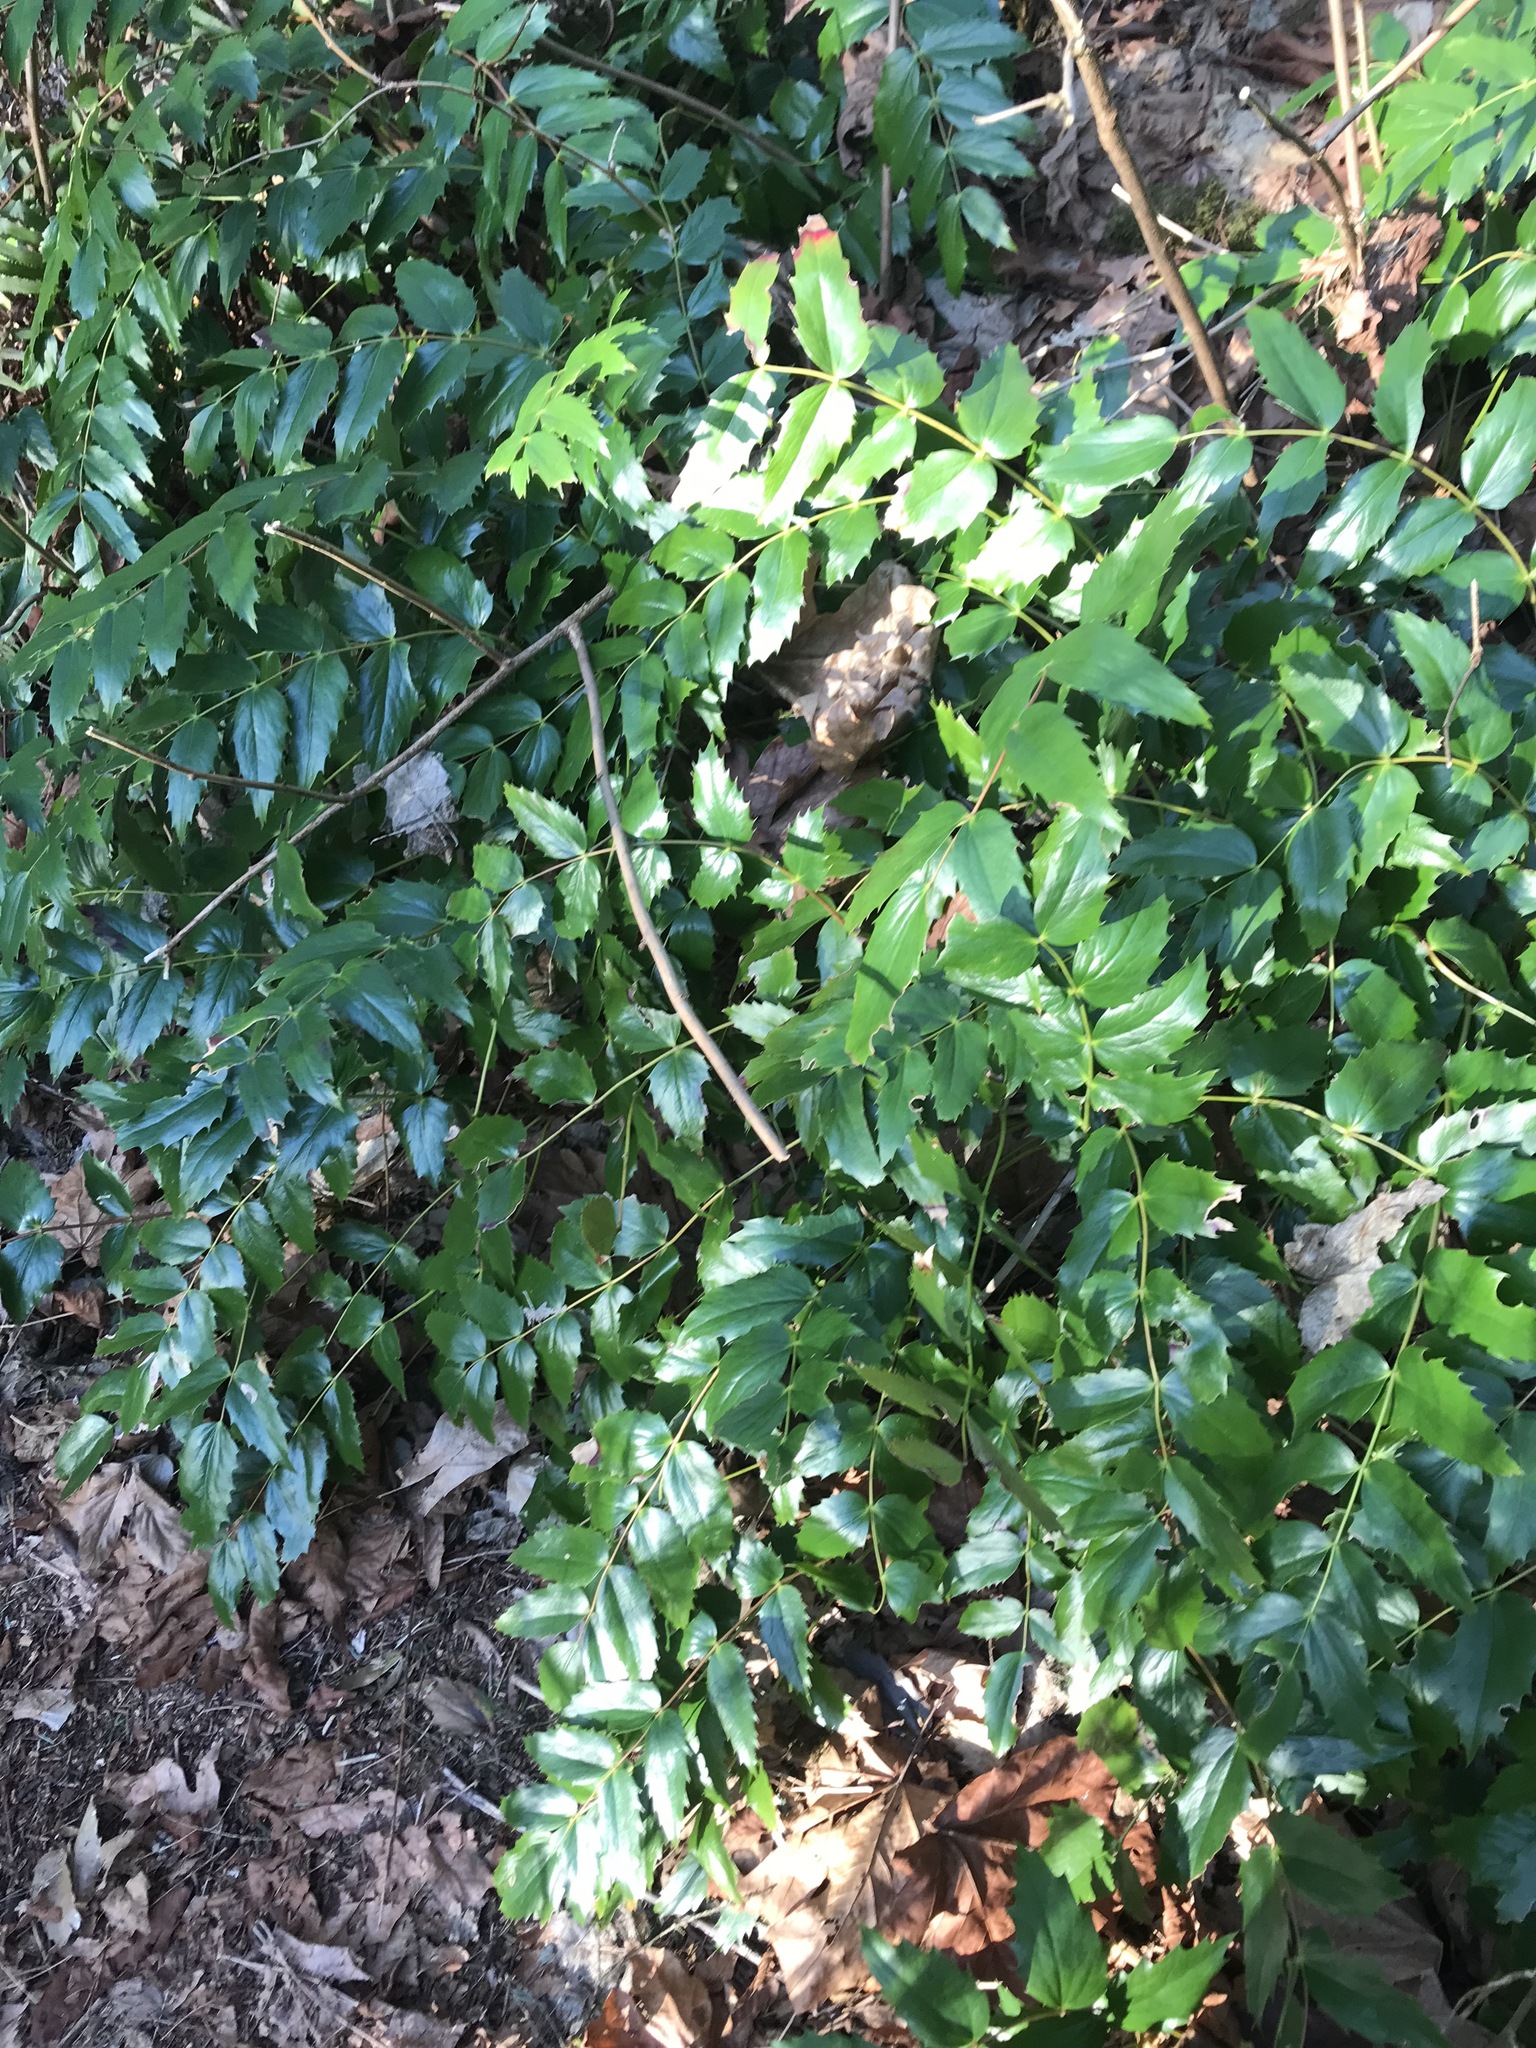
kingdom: Plantae
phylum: Tracheophyta
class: Magnoliopsida
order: Ranunculales
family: Berberidaceae
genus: Mahonia
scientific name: Mahonia nervosa
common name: Cascade oregon-grape
